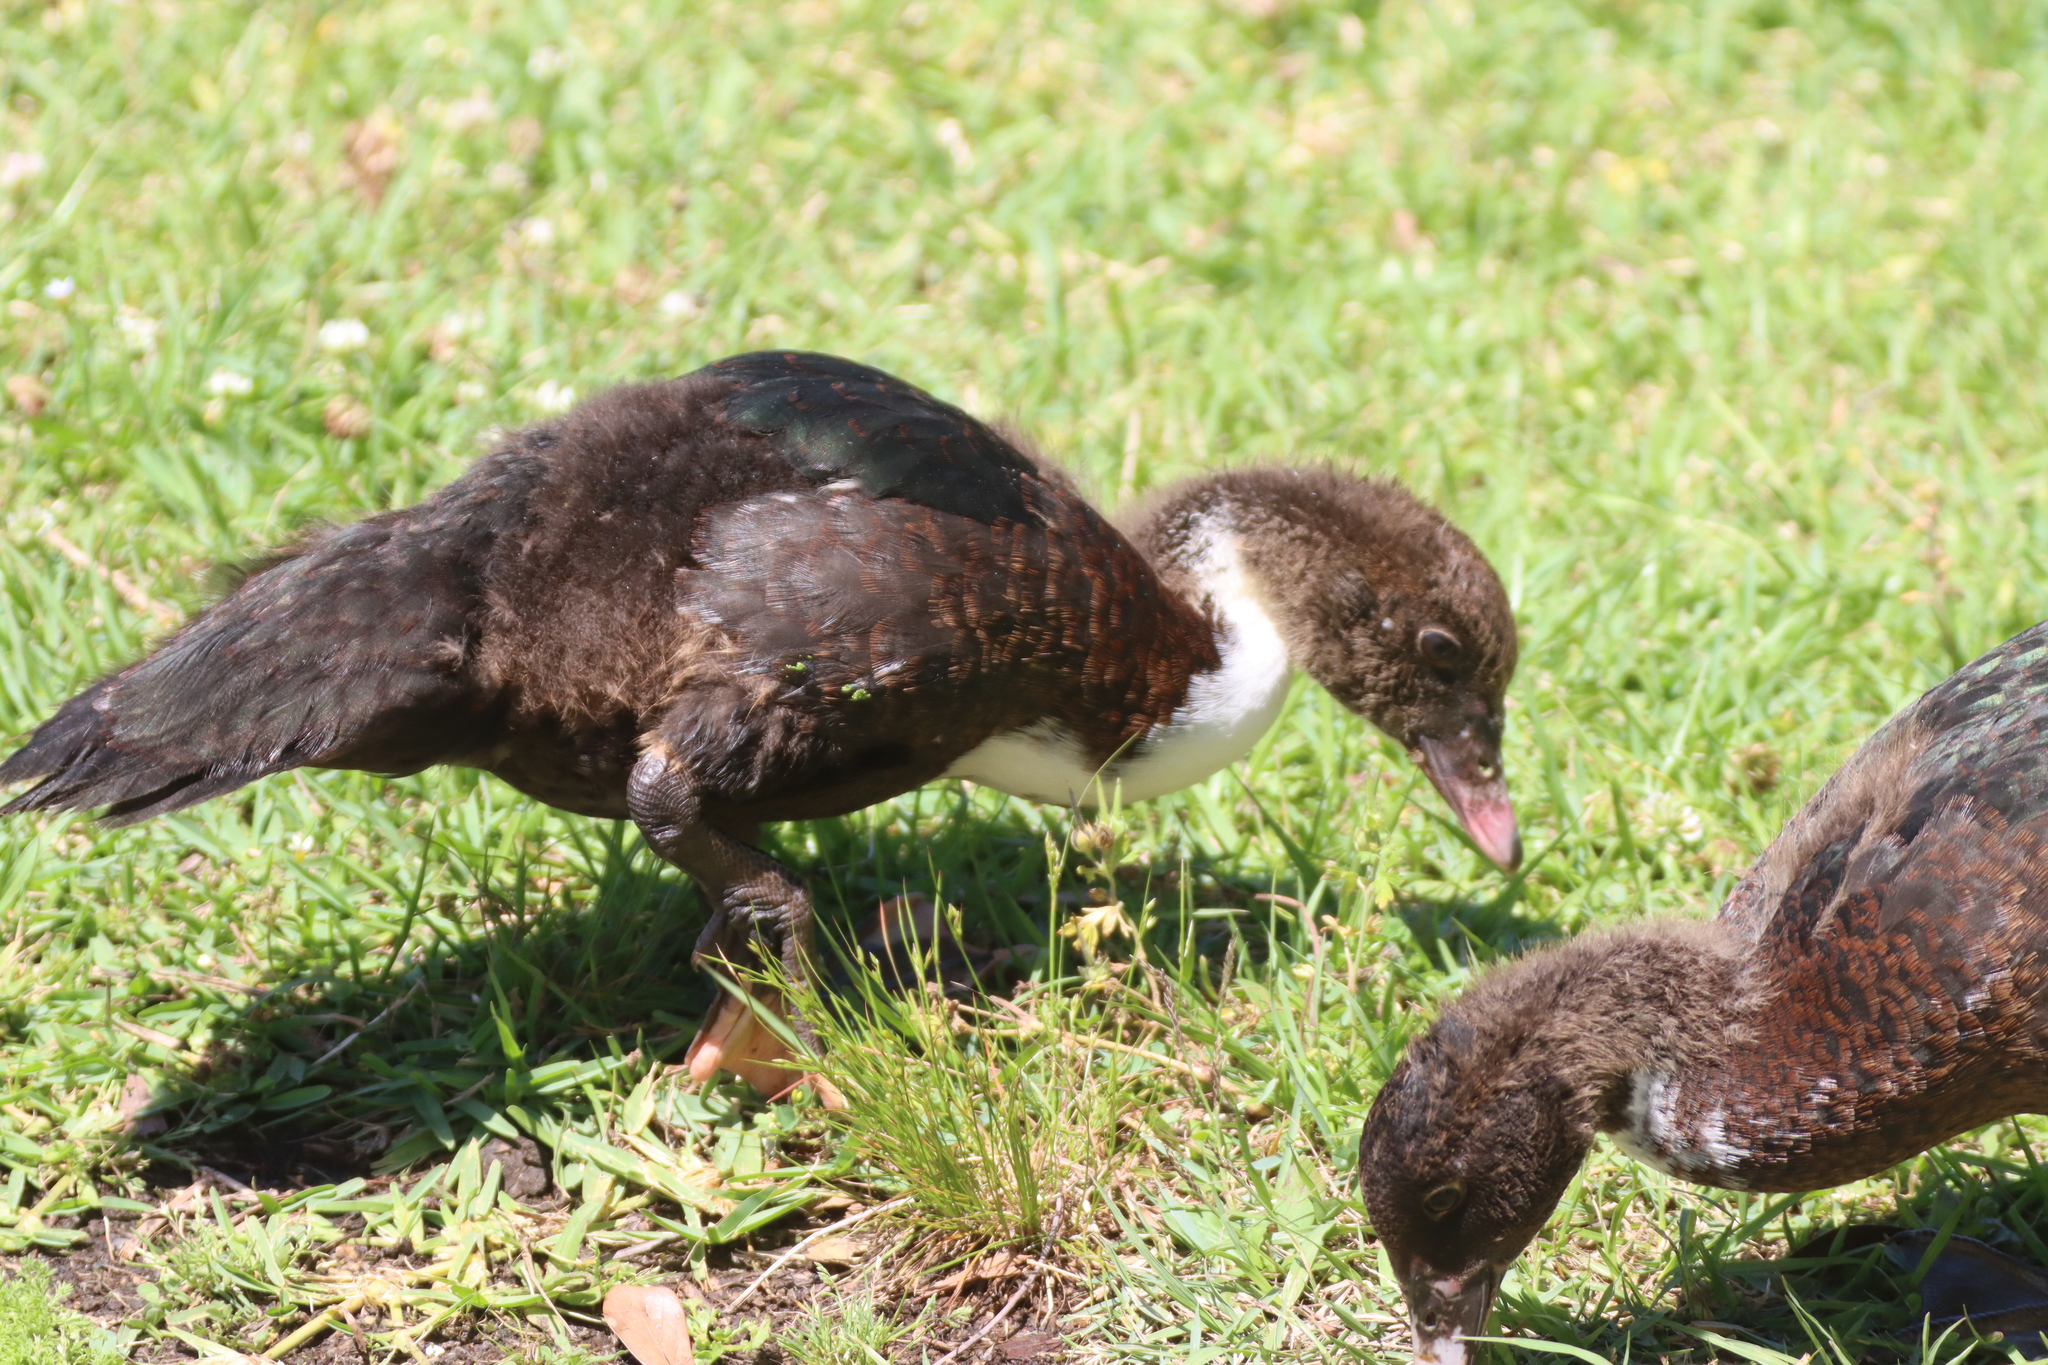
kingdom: Animalia
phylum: Chordata
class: Aves
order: Anseriformes
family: Anatidae
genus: Cairina
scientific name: Cairina moschata
